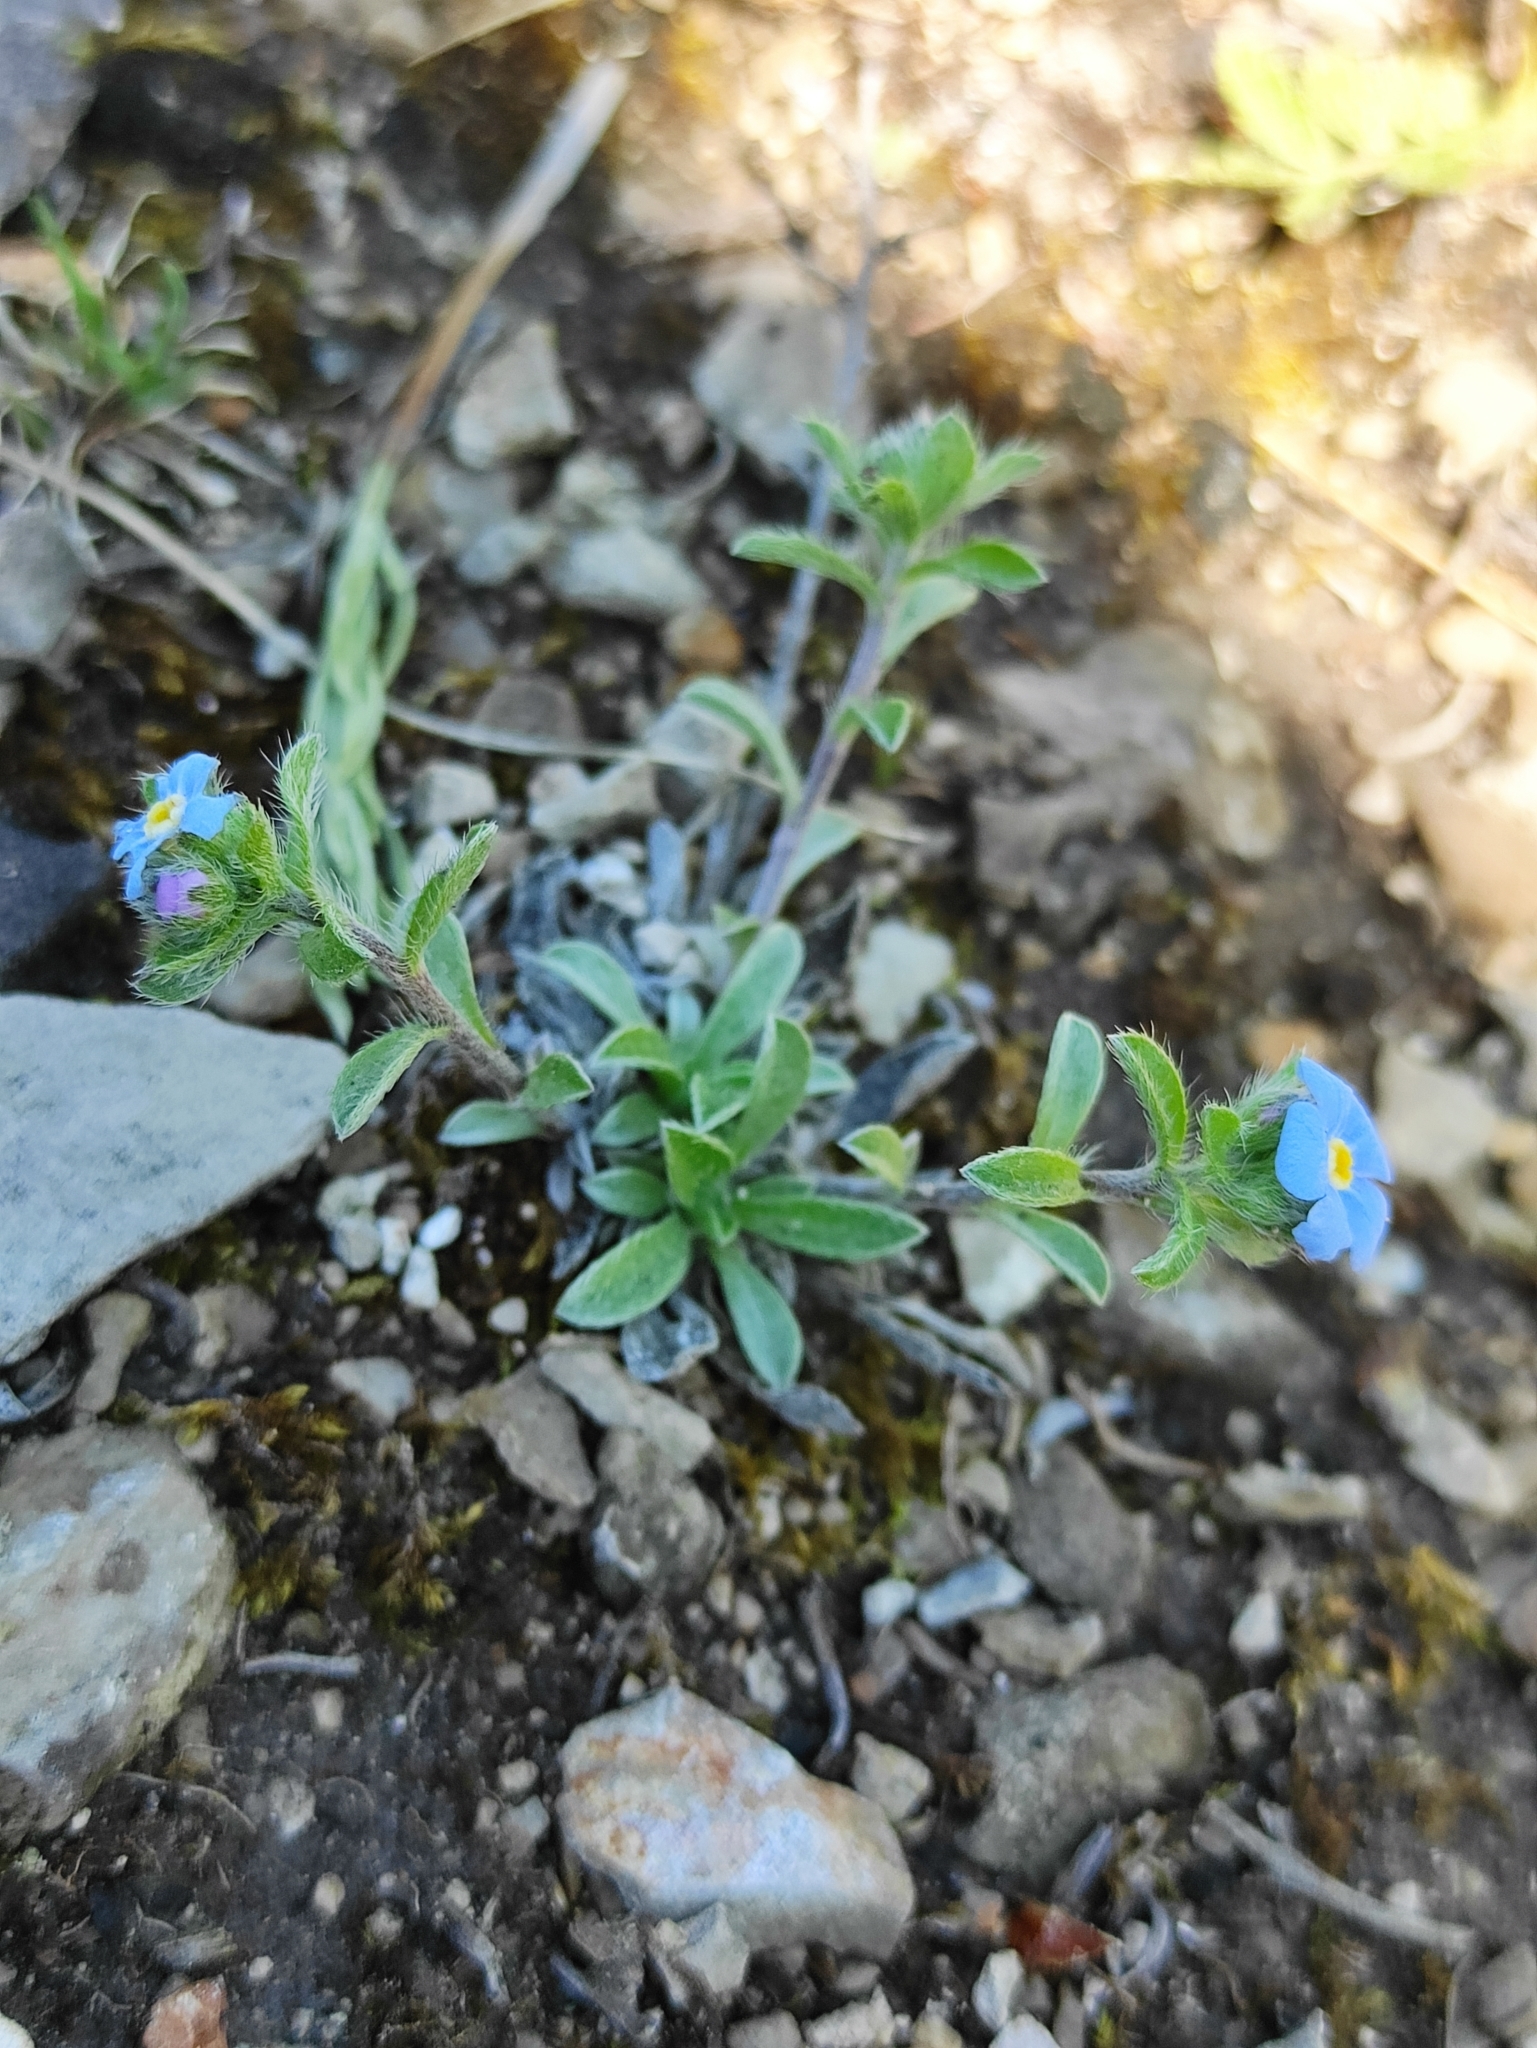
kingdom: Plantae
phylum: Tracheophyta
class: Magnoliopsida
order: Boraginales
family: Boraginaceae
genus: Eritrichium
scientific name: Eritrichium rupestre
